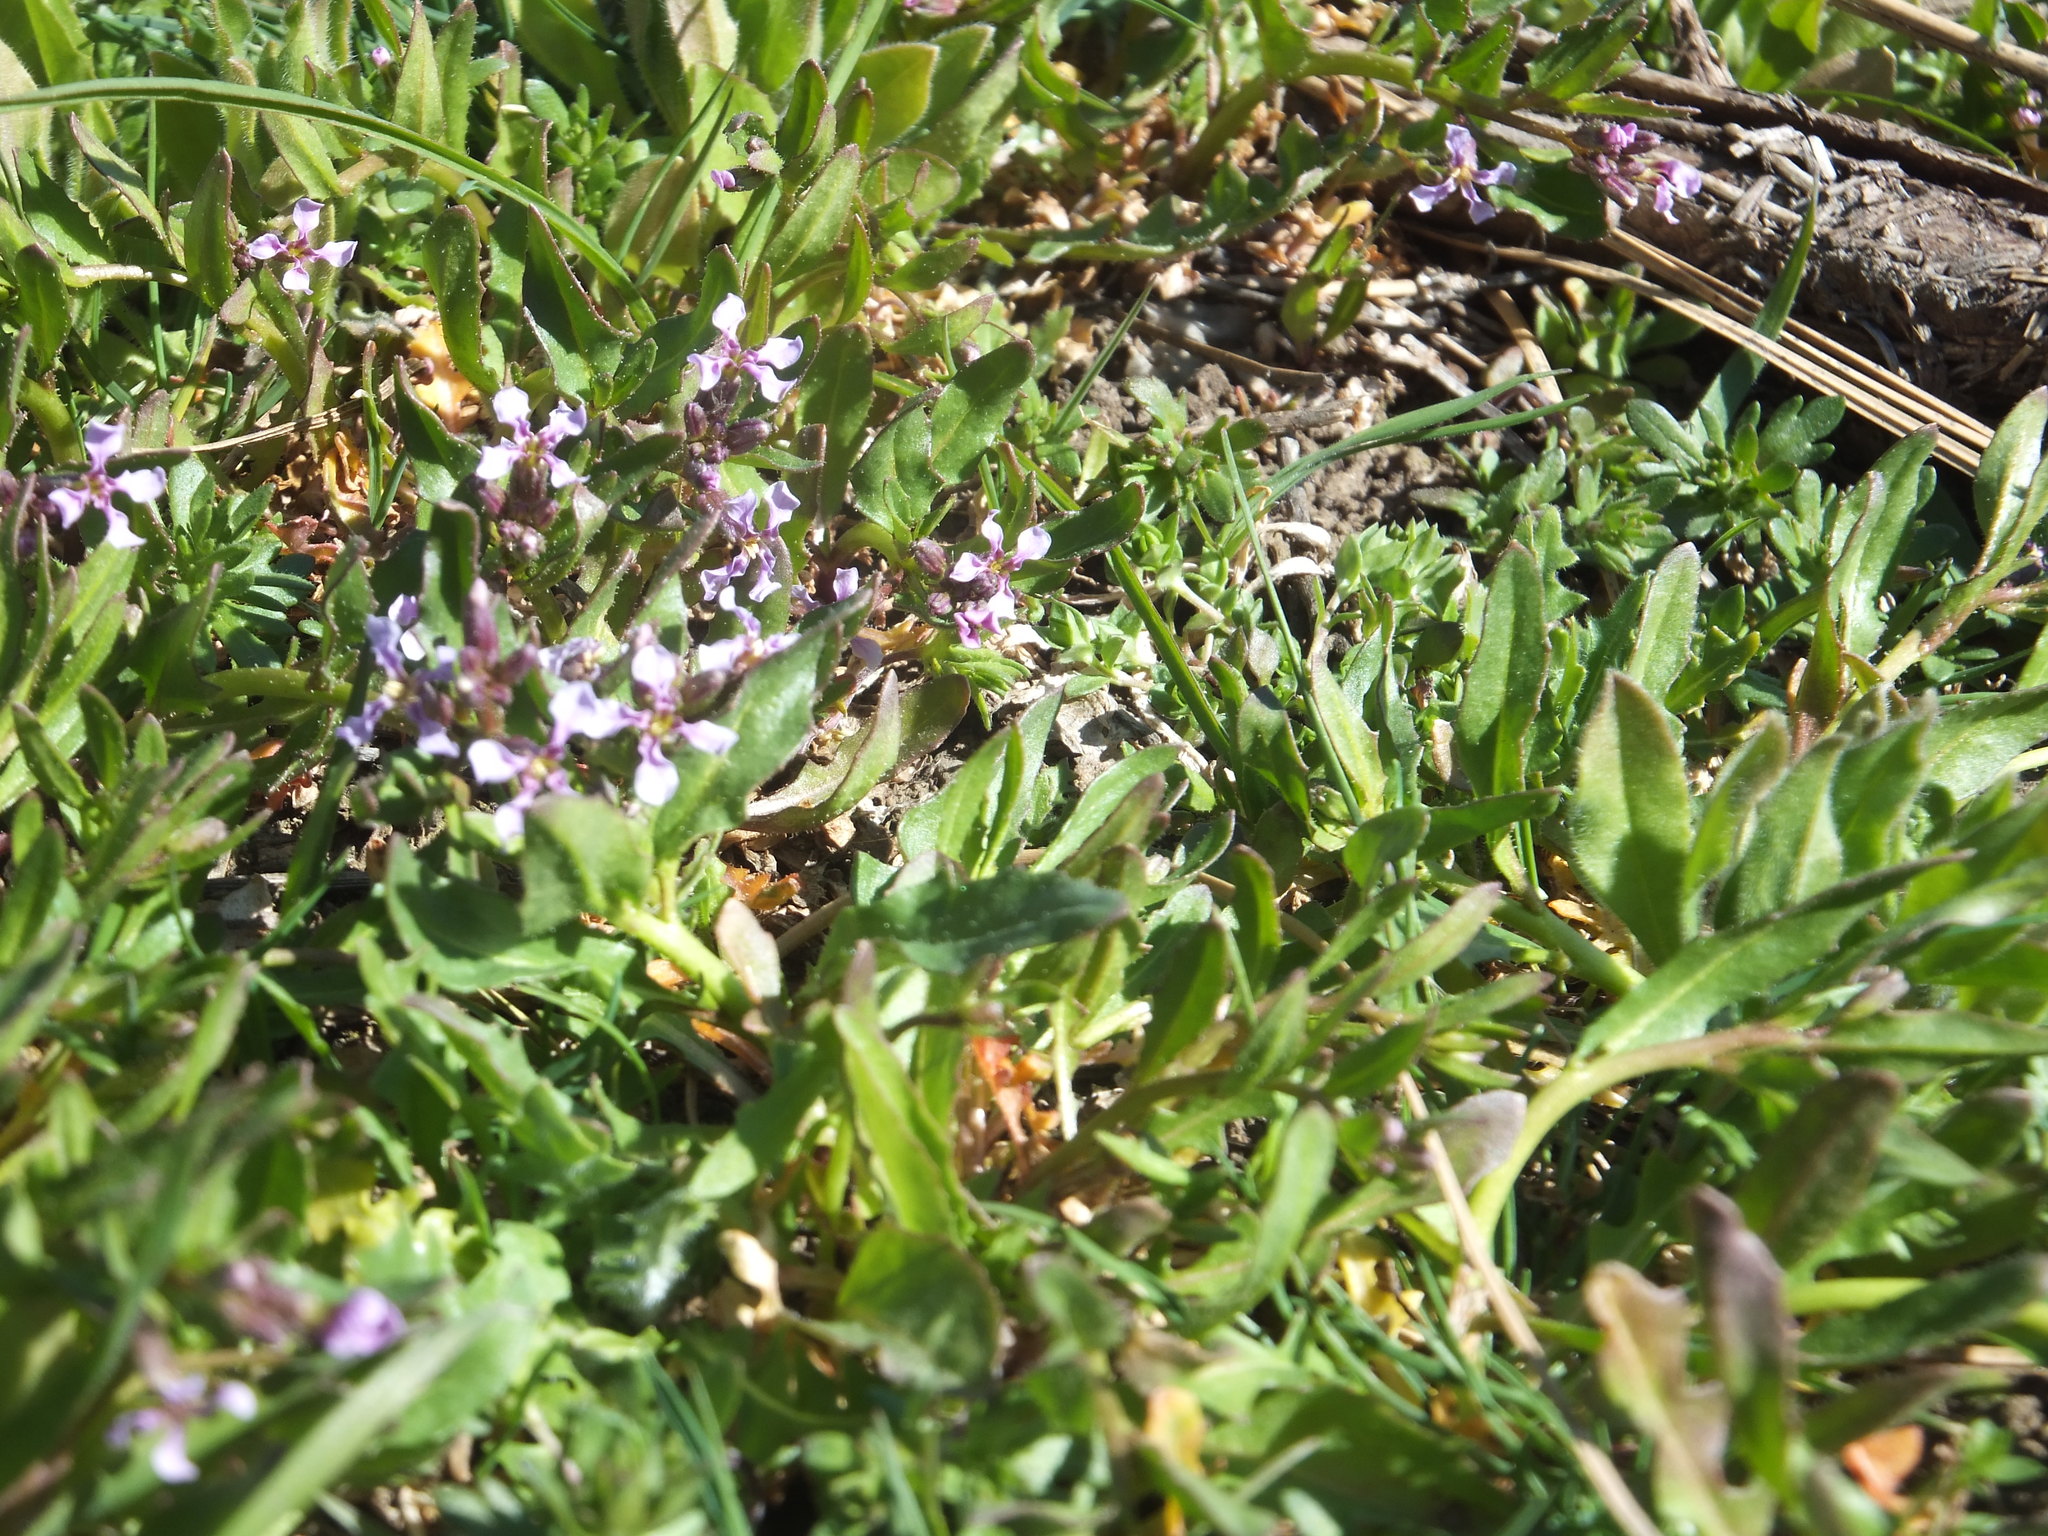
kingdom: Plantae
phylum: Tracheophyta
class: Magnoliopsida
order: Brassicales
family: Brassicaceae
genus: Chorispora
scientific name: Chorispora tenella
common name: Crossflower
